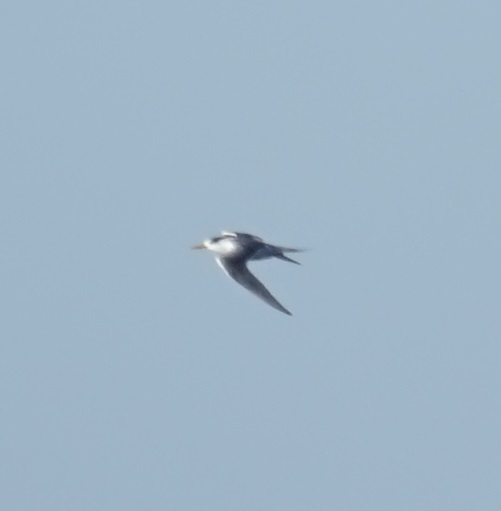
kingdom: Animalia
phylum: Chordata
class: Aves
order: Charadriiformes
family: Laridae
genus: Thalasseus
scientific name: Thalasseus bergii
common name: Greater crested tern
